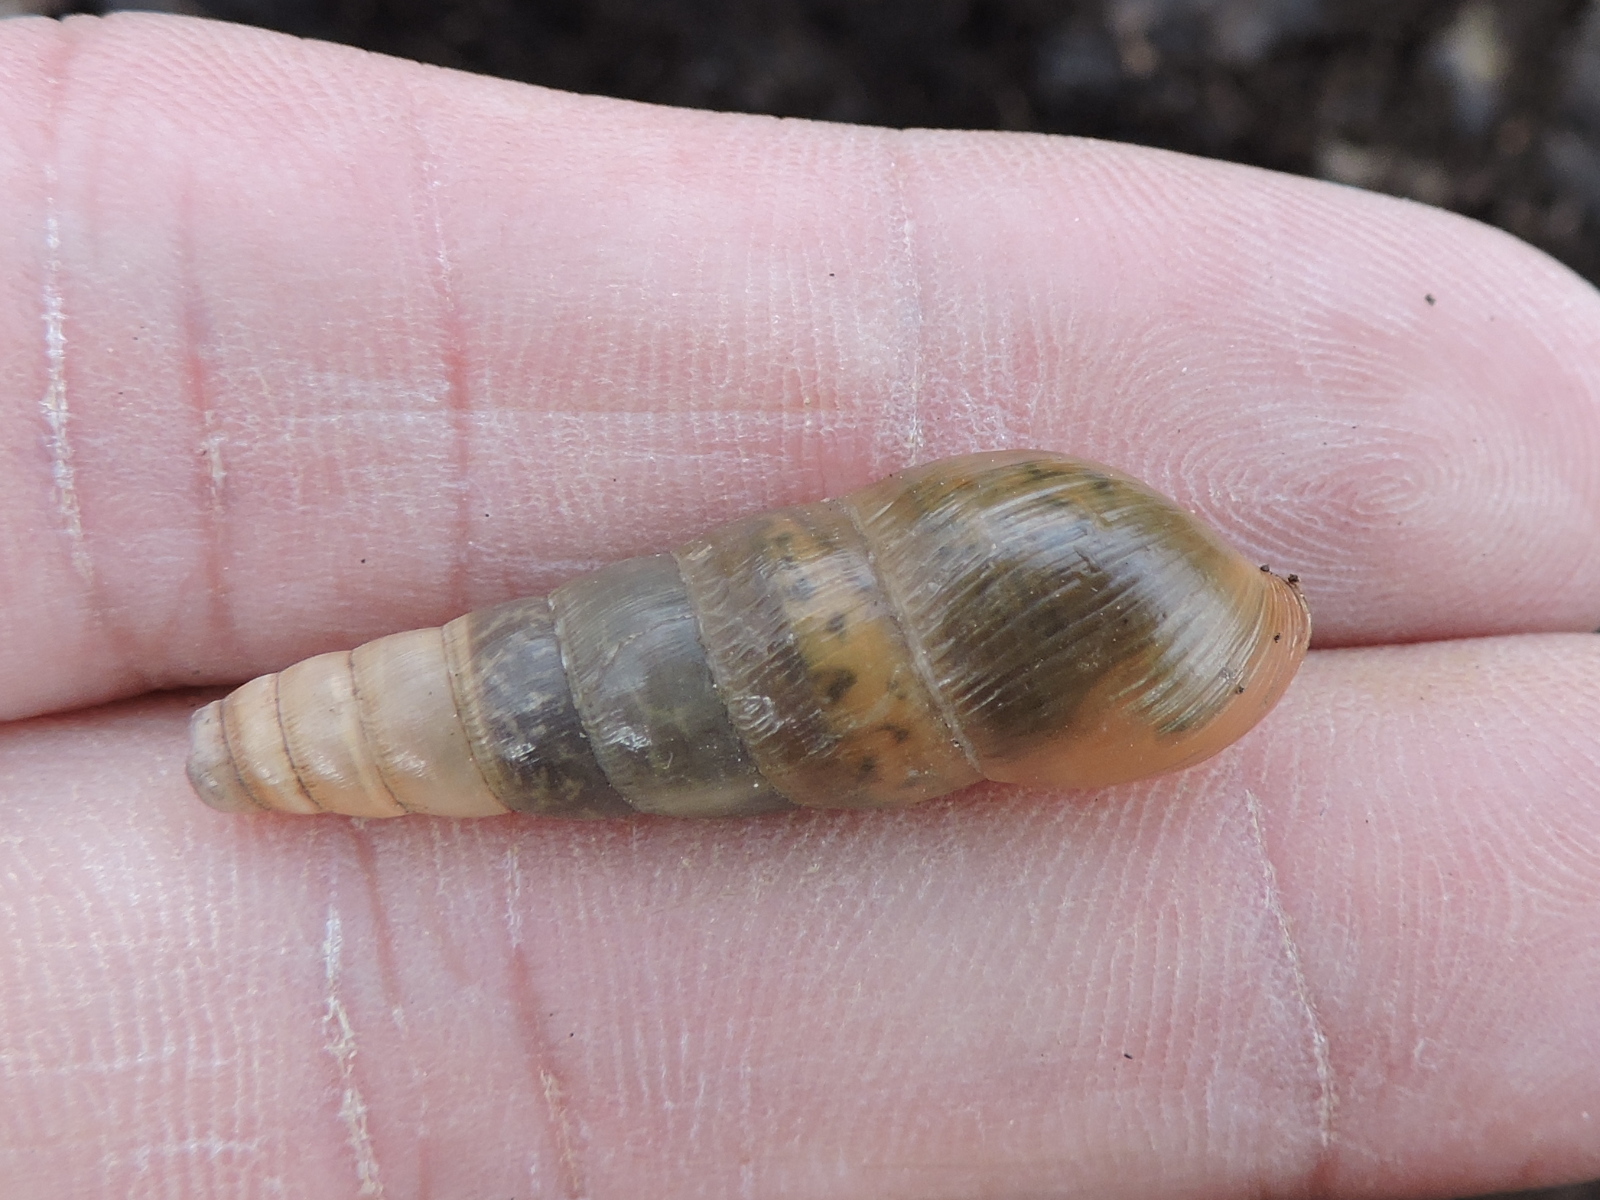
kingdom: Animalia
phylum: Mollusca
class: Gastropoda
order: Stylommatophora
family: Achatinidae
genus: Rumina
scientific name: Rumina decollata
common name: Decollate snail
